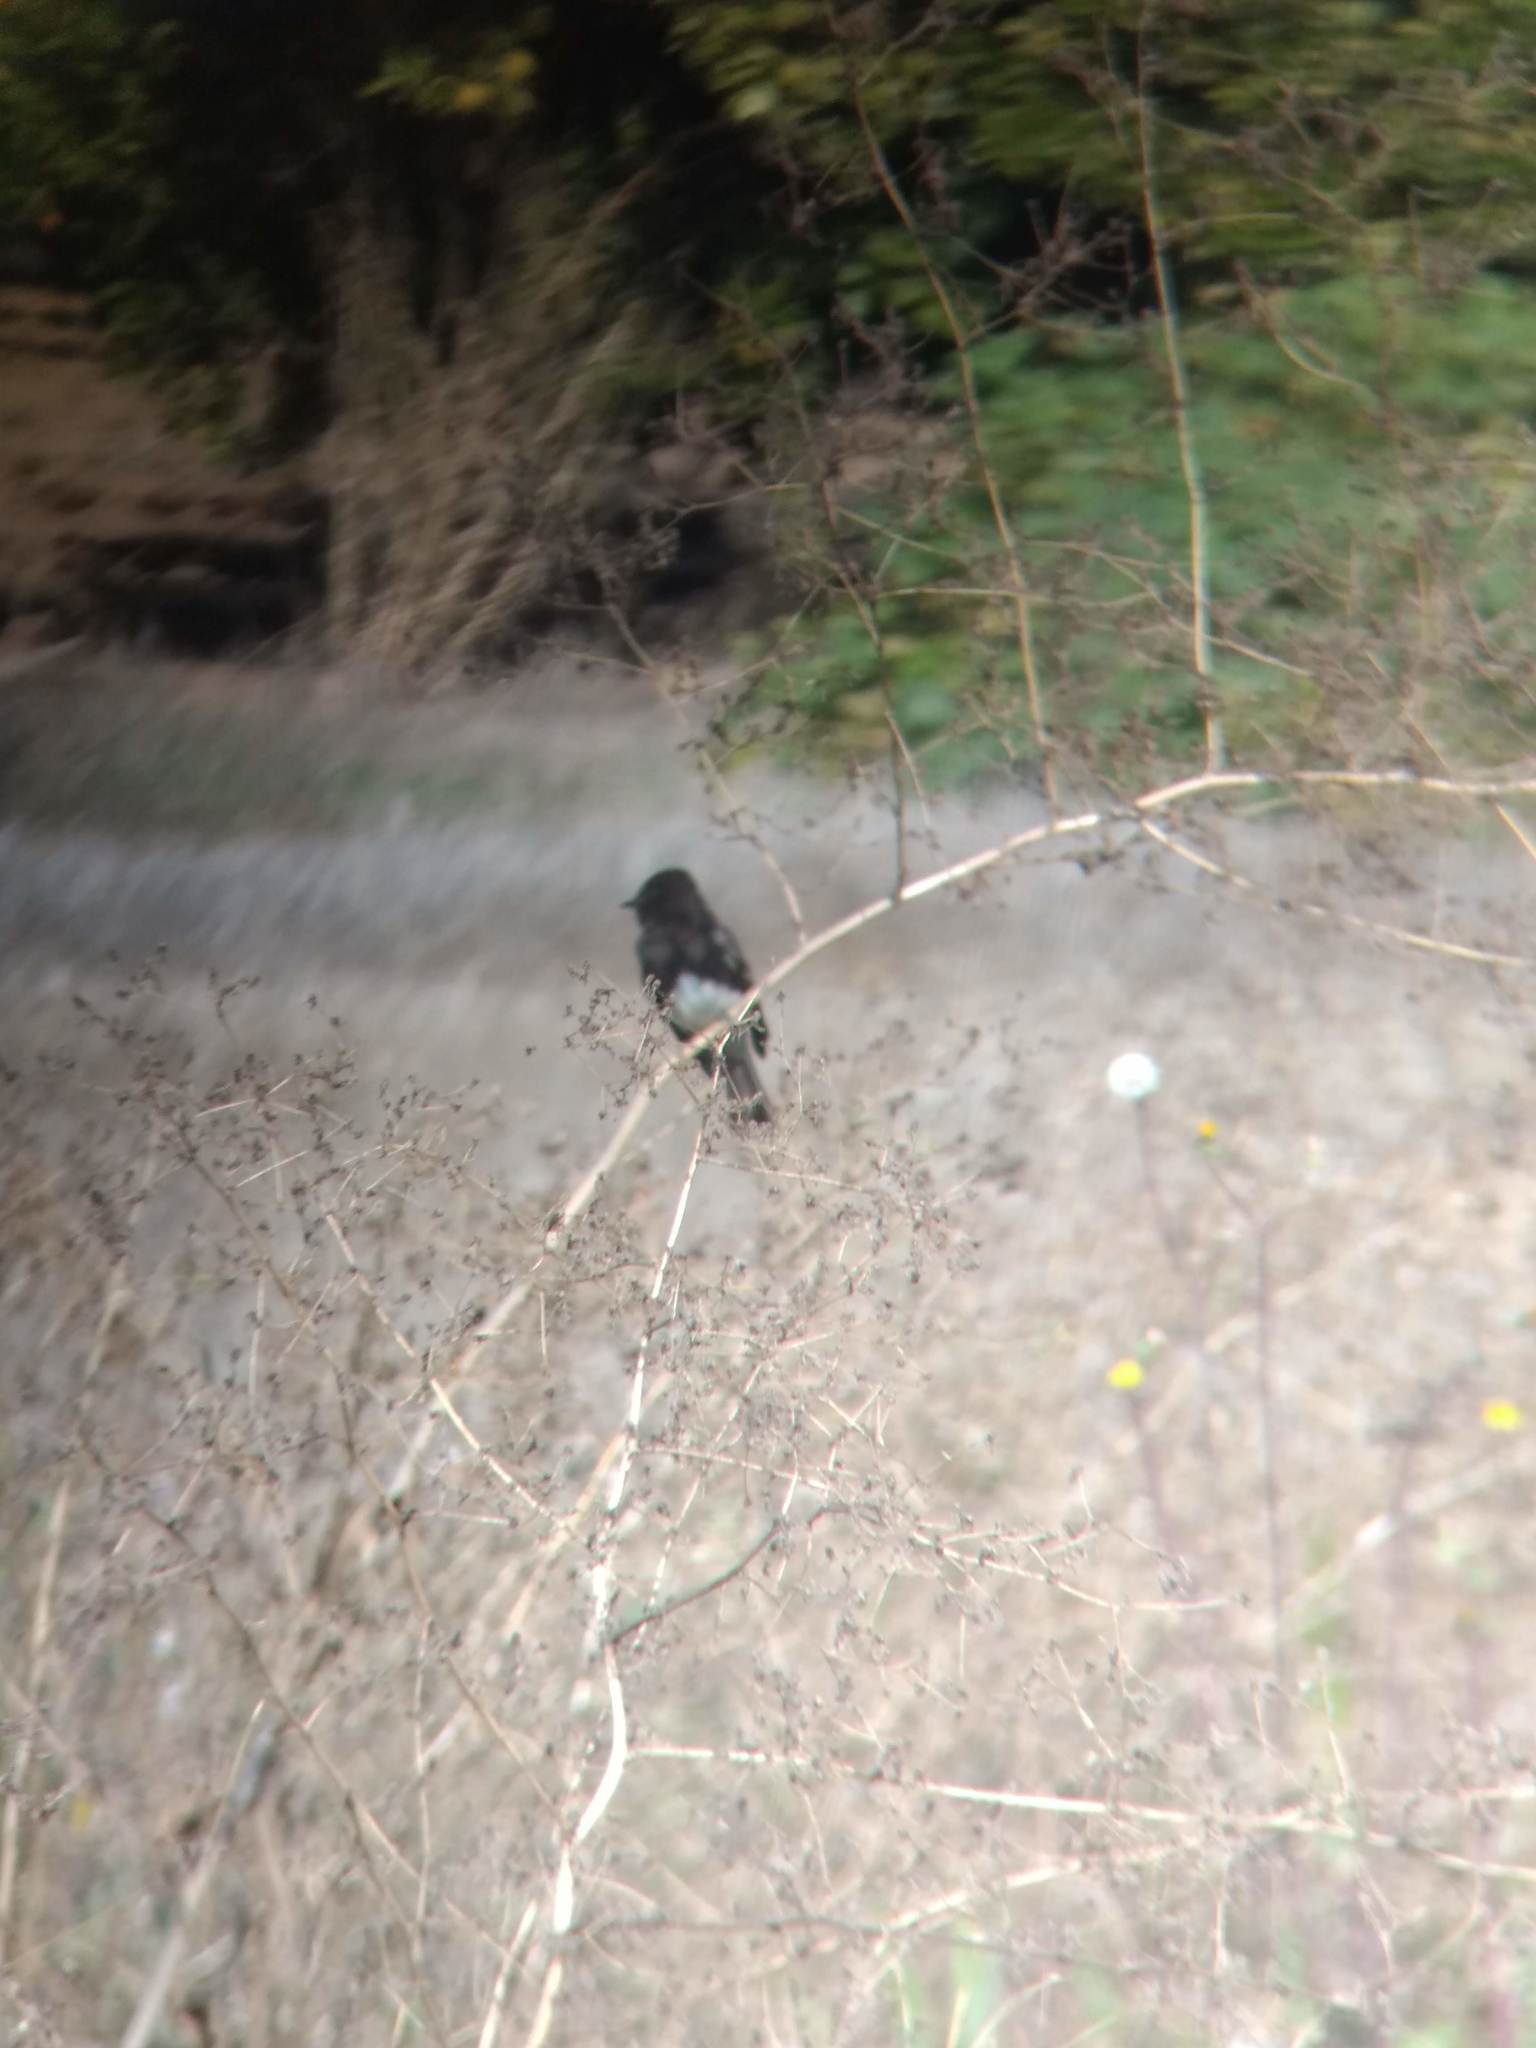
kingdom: Animalia
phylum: Chordata
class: Aves
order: Passeriformes
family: Tyrannidae
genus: Sayornis
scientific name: Sayornis nigricans
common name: Black phoebe
